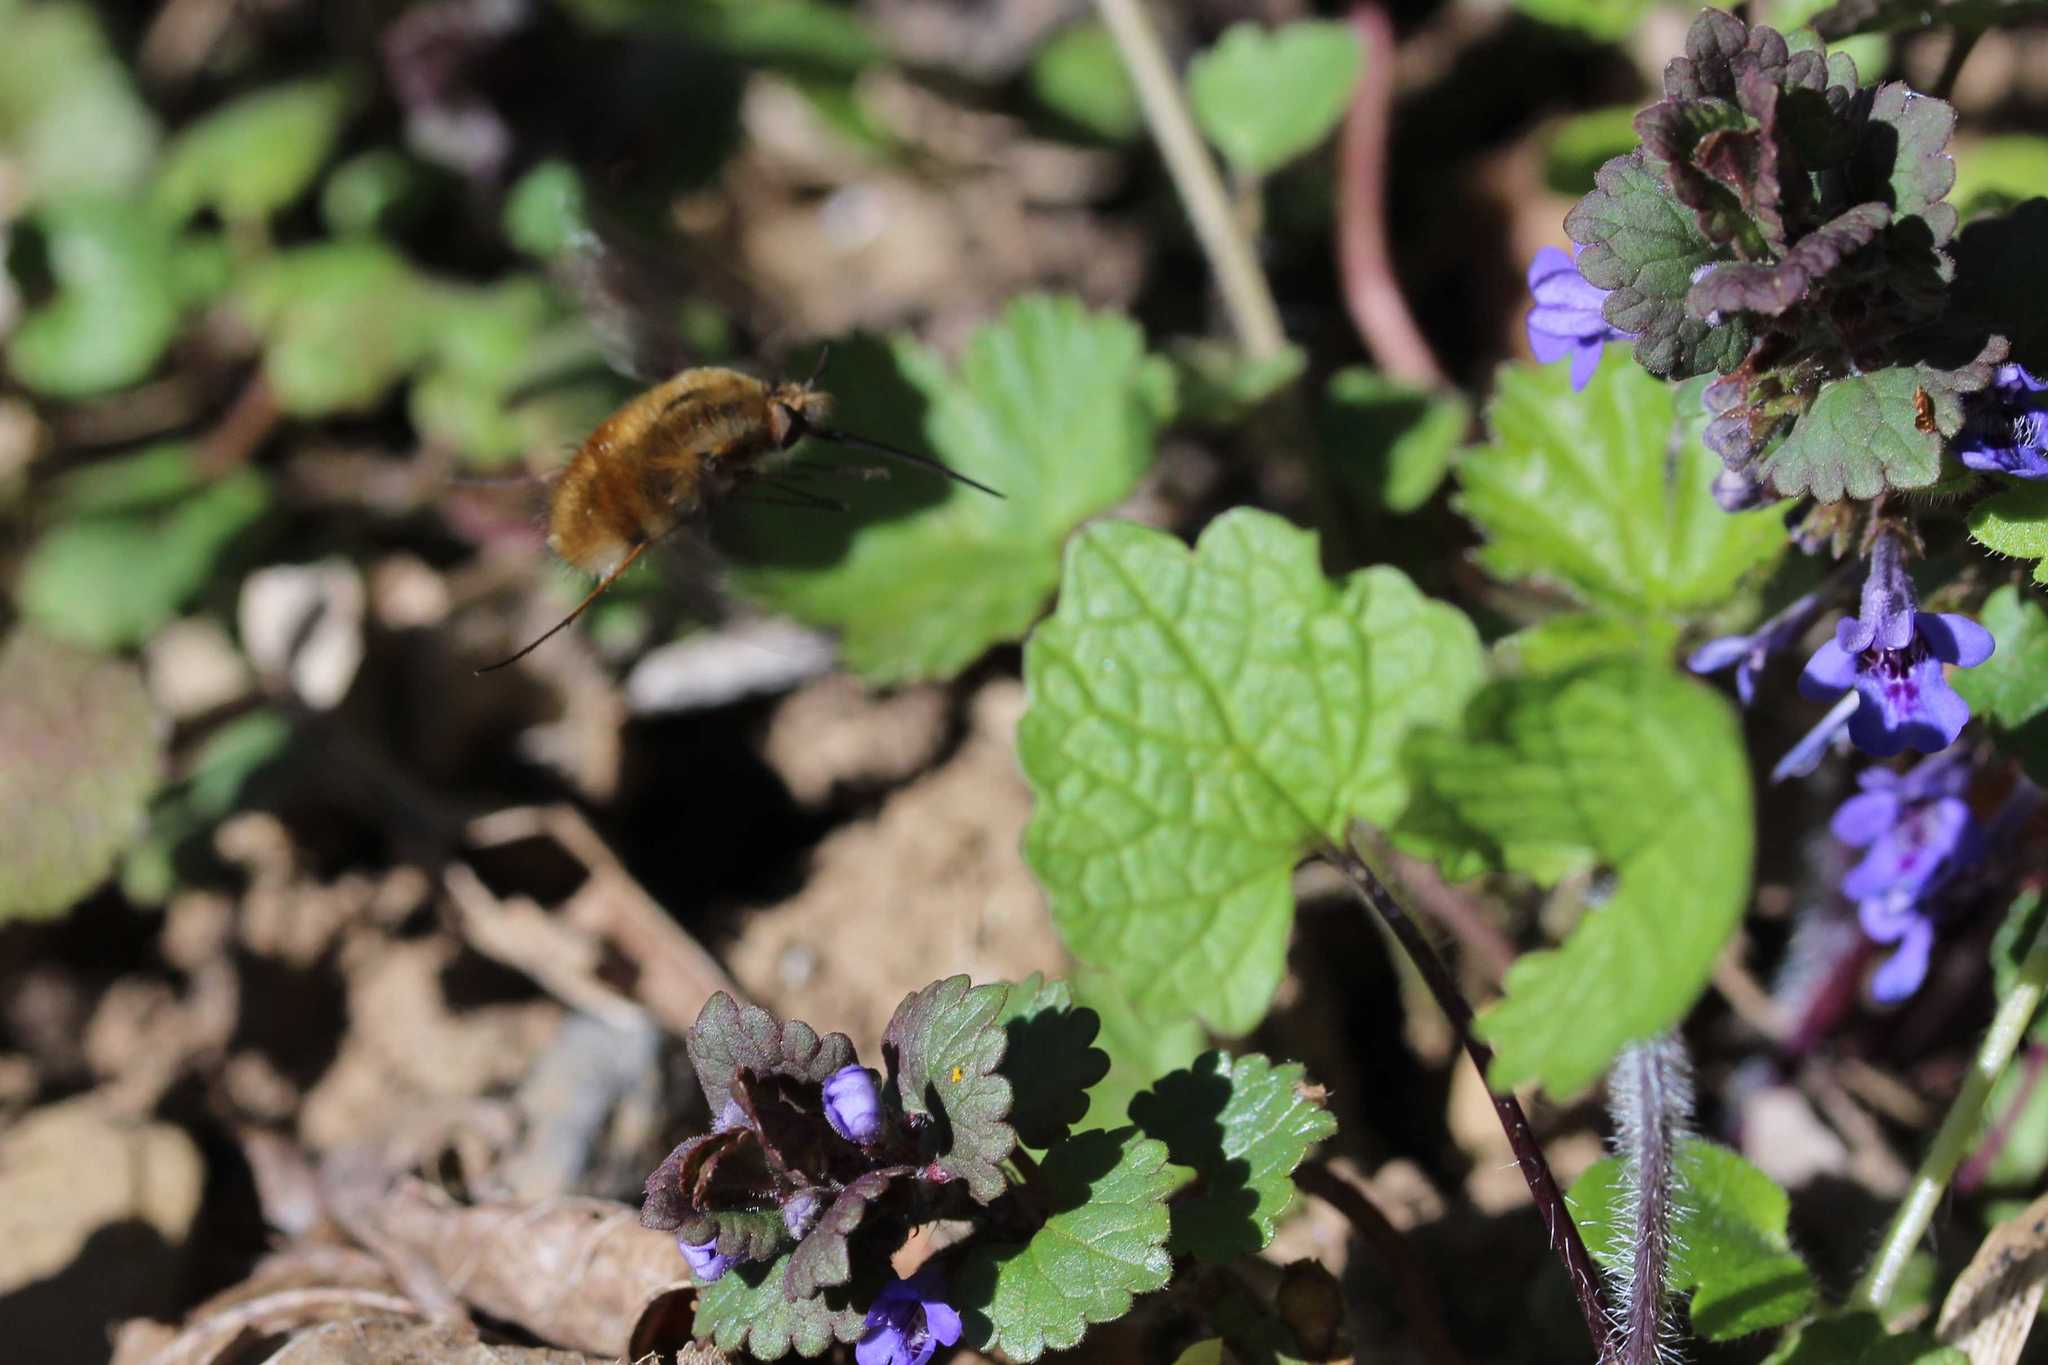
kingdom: Animalia
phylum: Arthropoda
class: Insecta
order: Diptera
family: Bombyliidae
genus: Bombylius
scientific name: Bombylius major
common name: Bee fly
